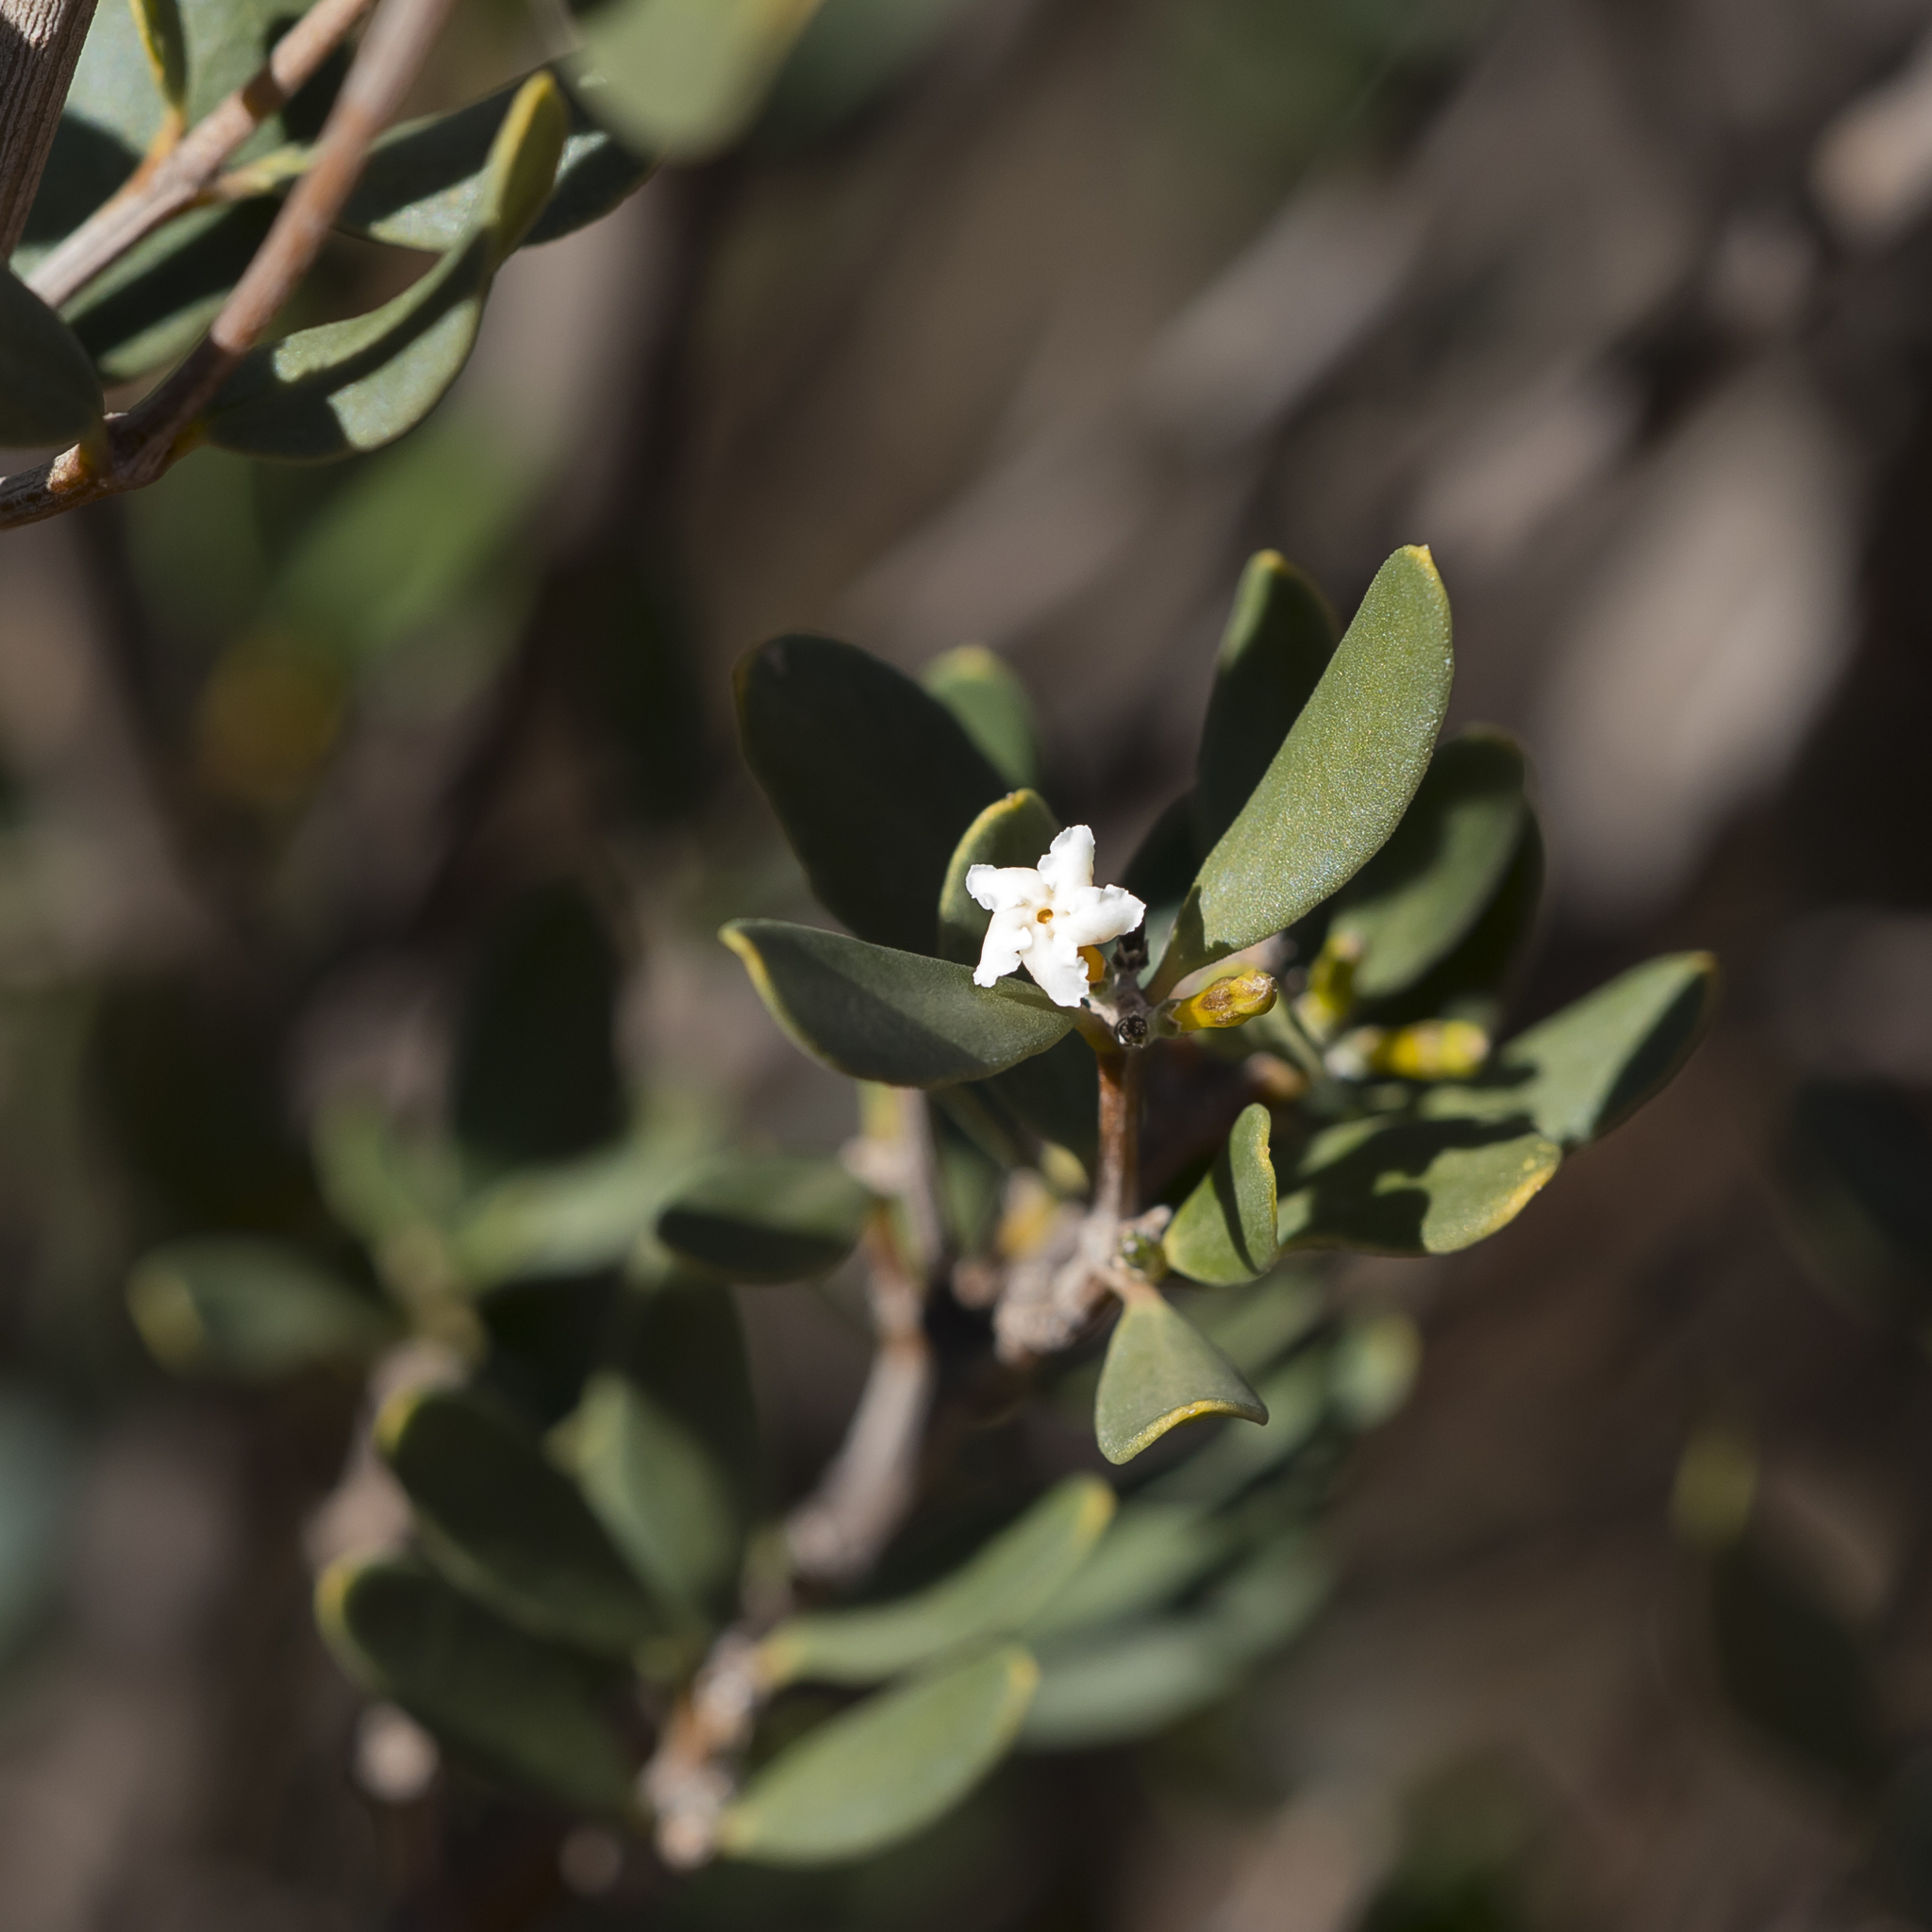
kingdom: Plantae
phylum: Tracheophyta
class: Magnoliopsida
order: Gentianales
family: Apocynaceae
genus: Alyxia
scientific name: Alyxia buxifolia
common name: Dysentery-bush
